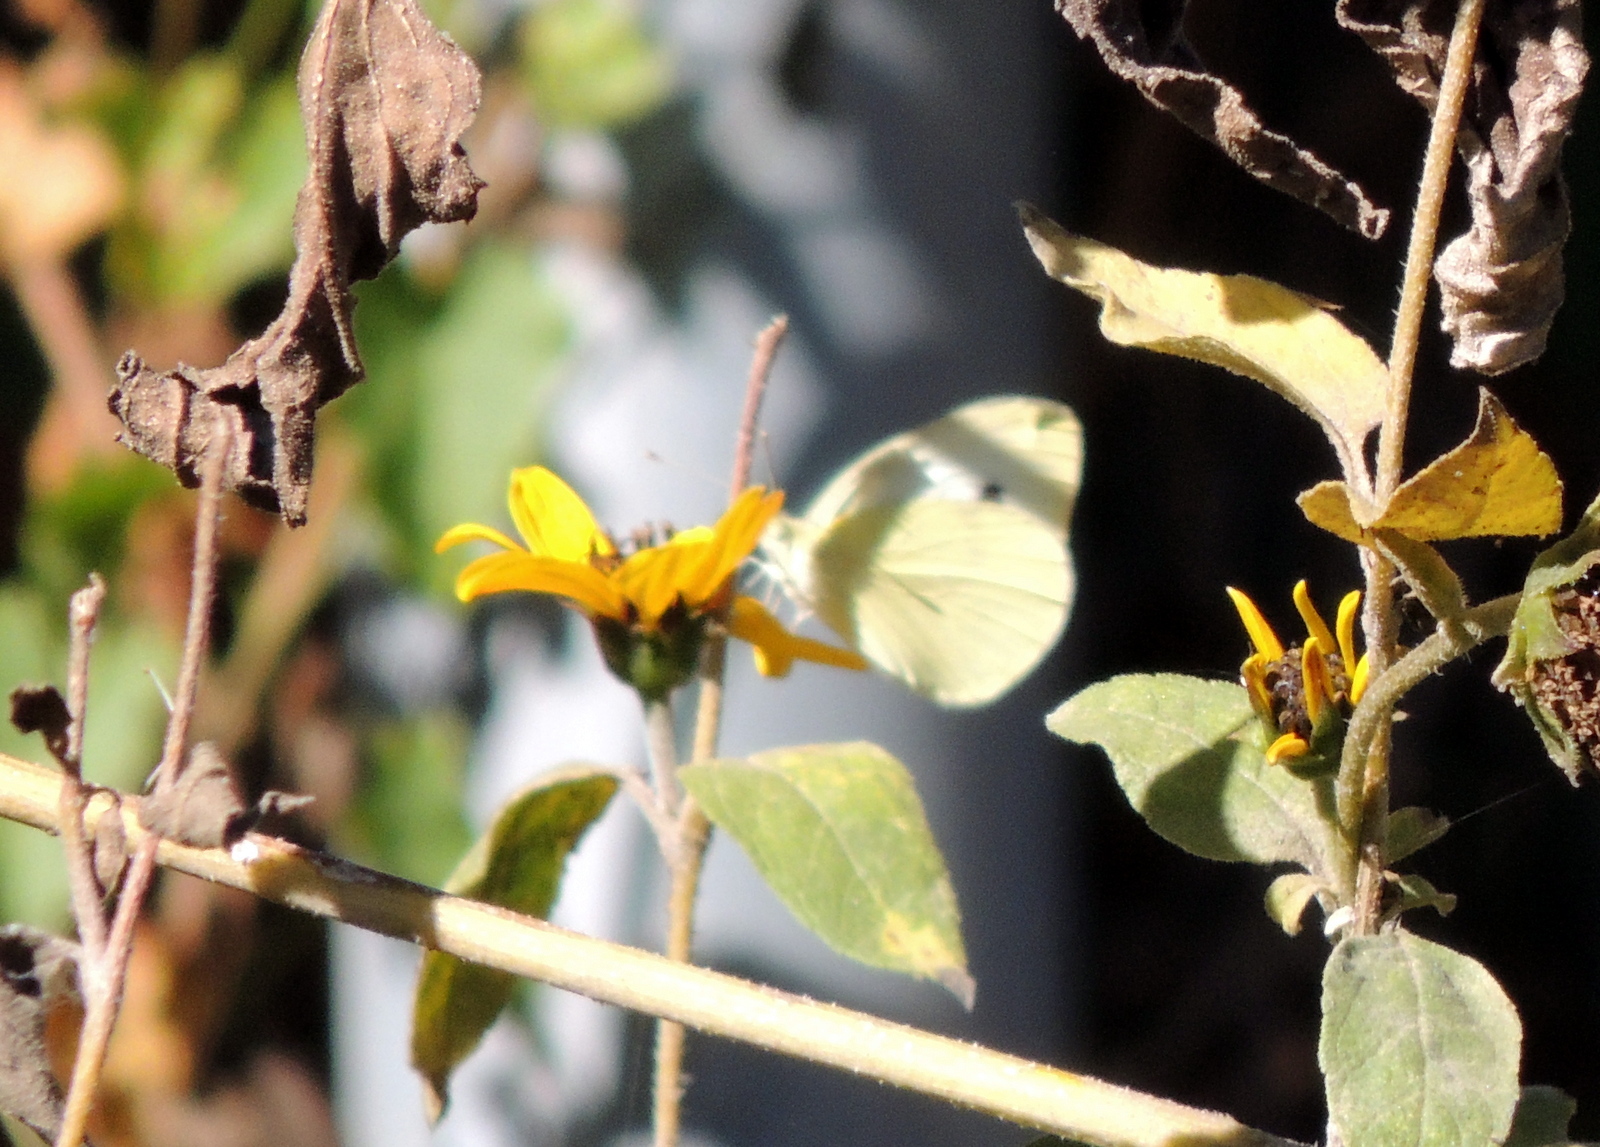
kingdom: Animalia
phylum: Arthropoda
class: Insecta
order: Lepidoptera
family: Pieridae
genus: Pieris
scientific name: Pieris rapae
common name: Small white
